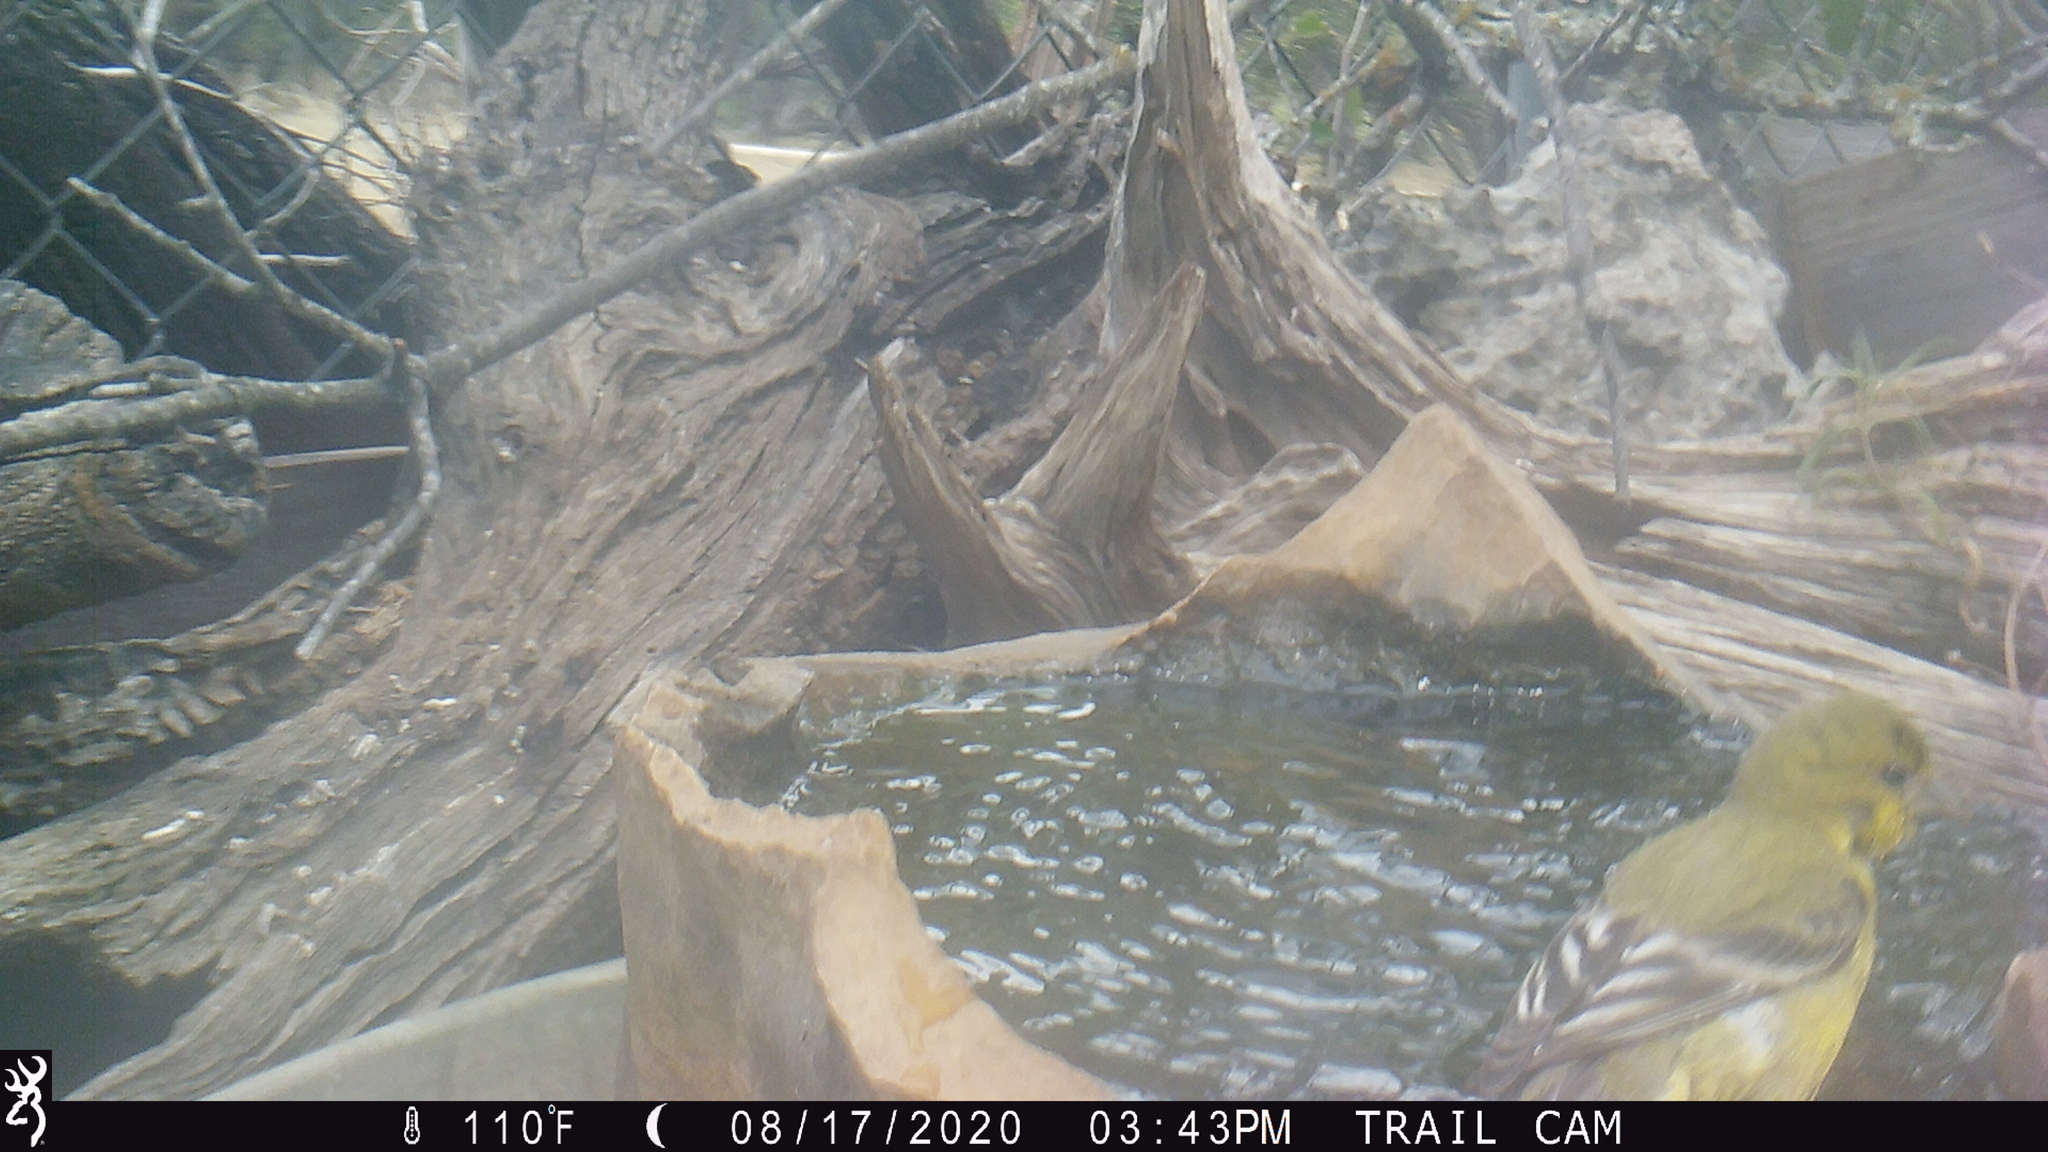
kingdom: Animalia
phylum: Chordata
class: Aves
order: Passeriformes
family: Fringillidae
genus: Spinus
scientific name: Spinus psaltria
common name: Lesser goldfinch
